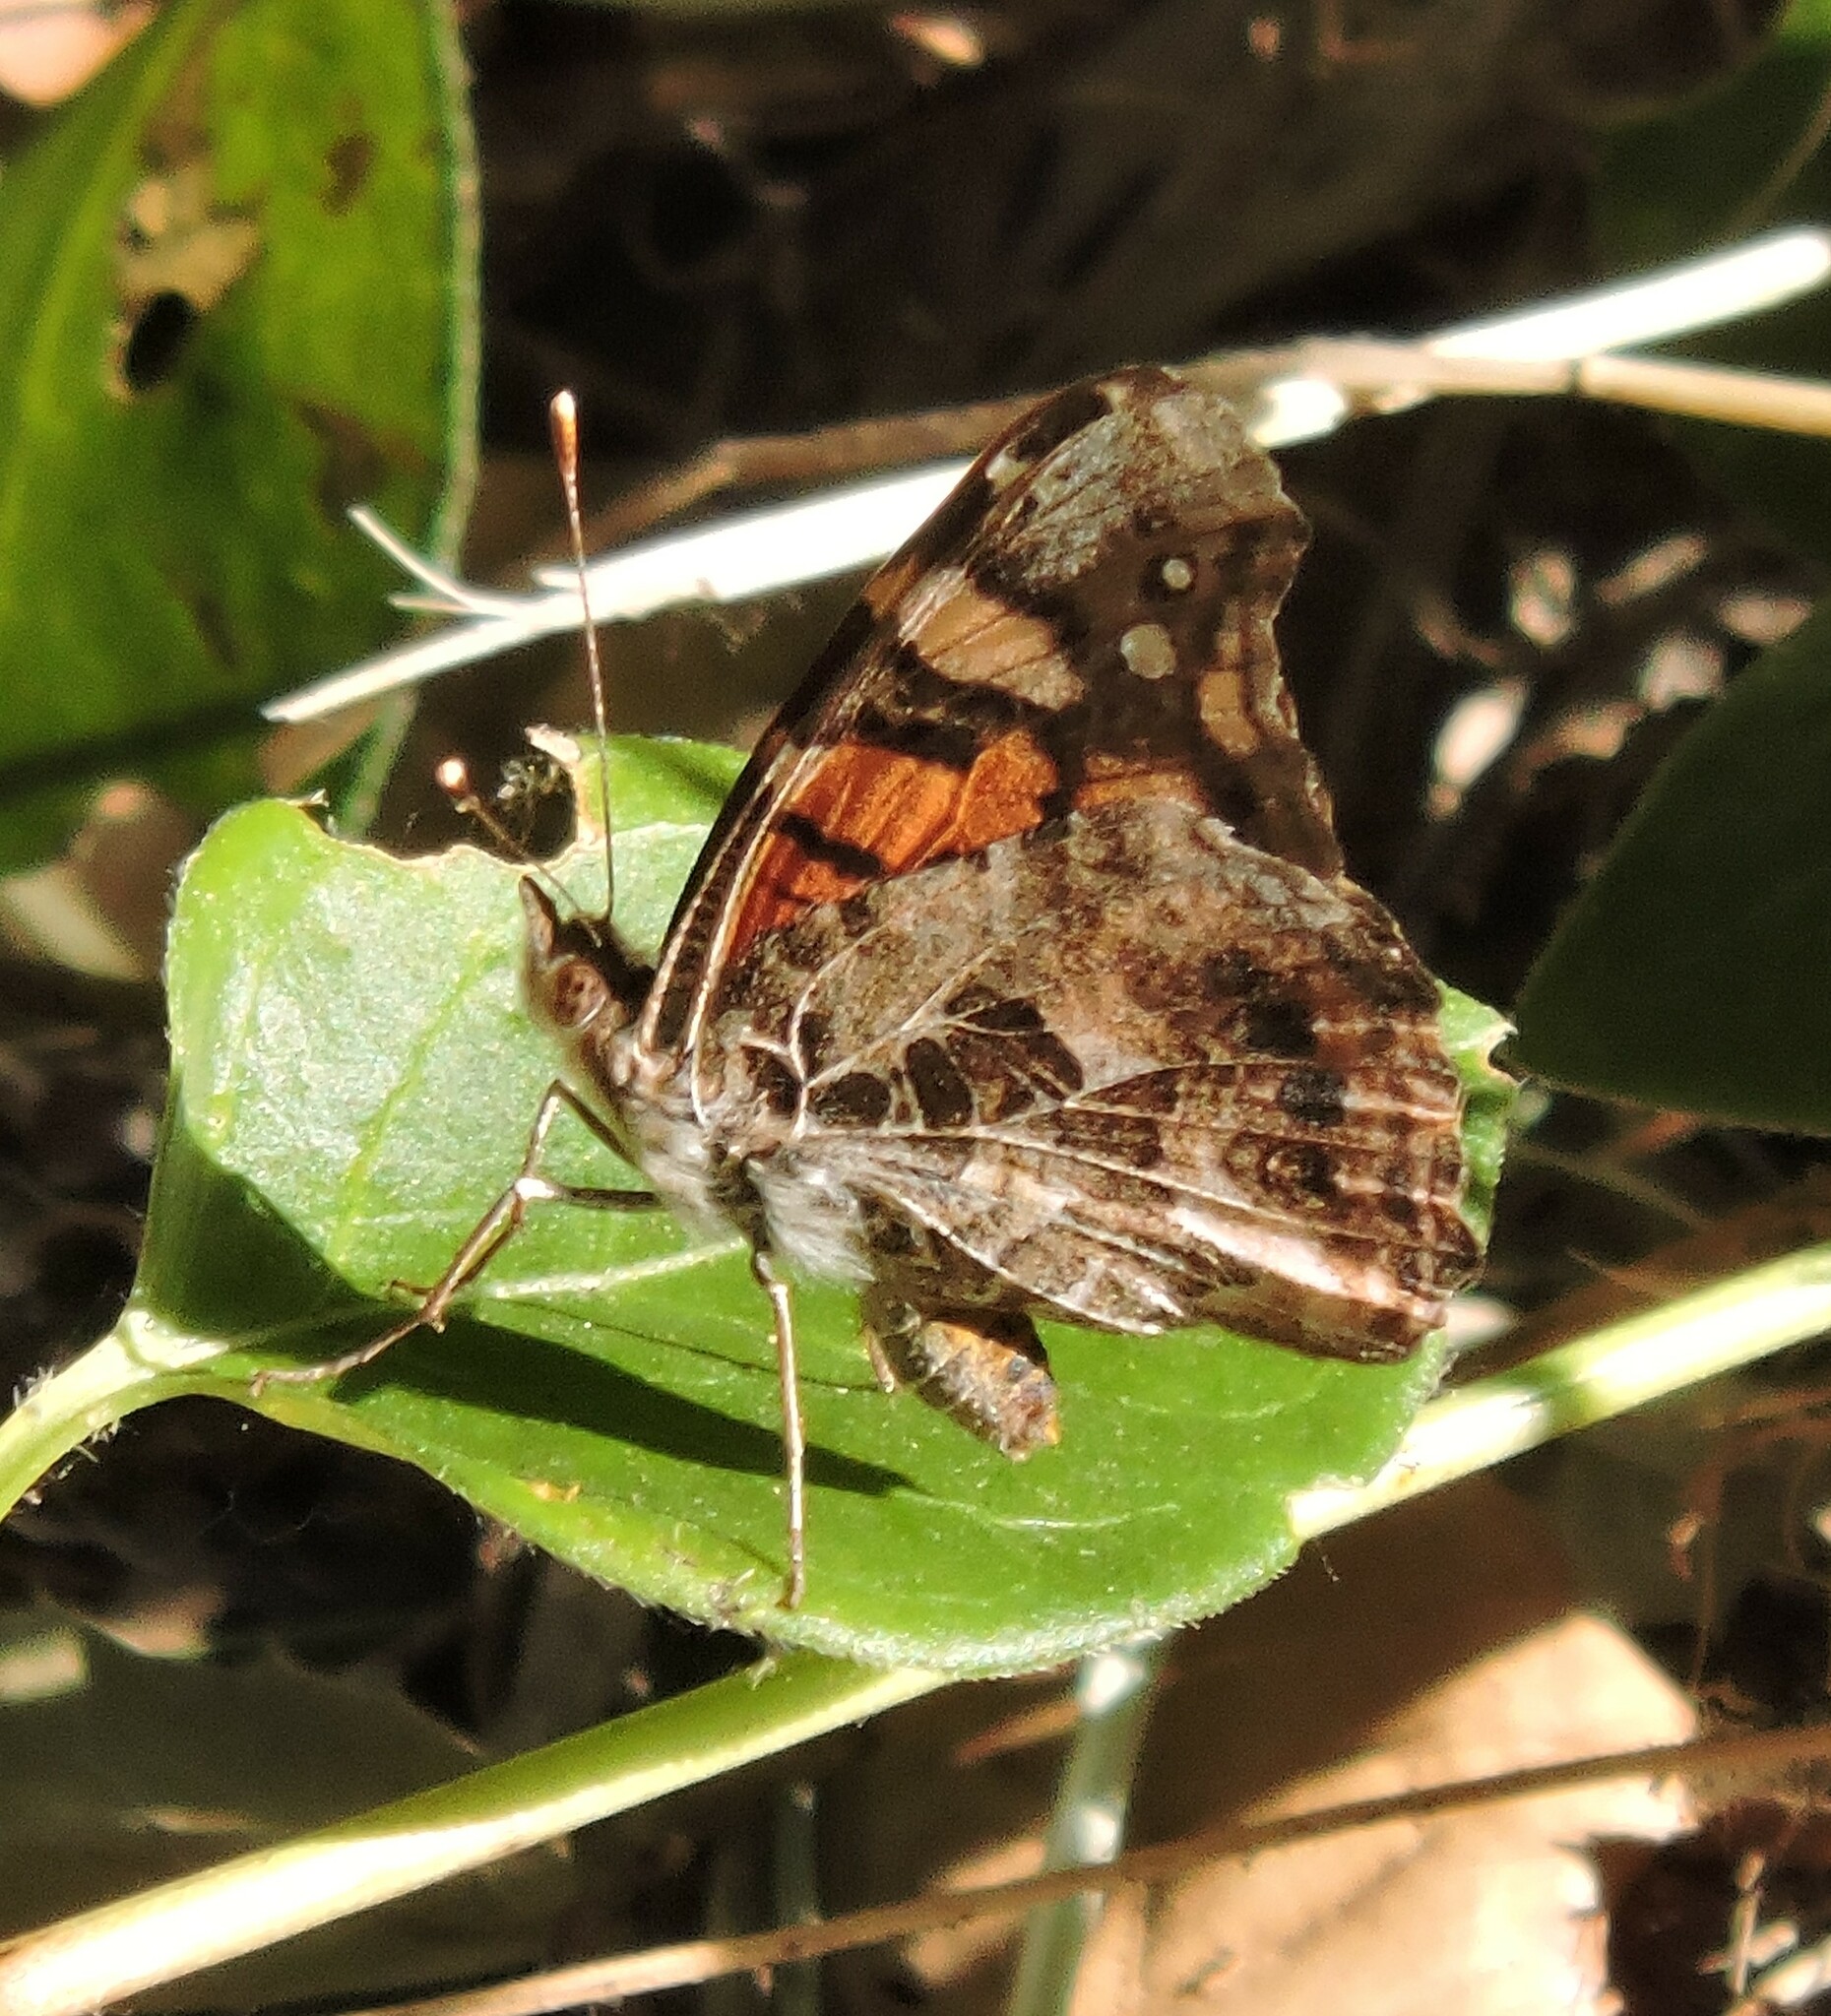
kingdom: Animalia
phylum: Arthropoda
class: Insecta
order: Lepidoptera
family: Nymphalidae
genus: Vanessa
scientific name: Vanessa annabella
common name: West coast lady
